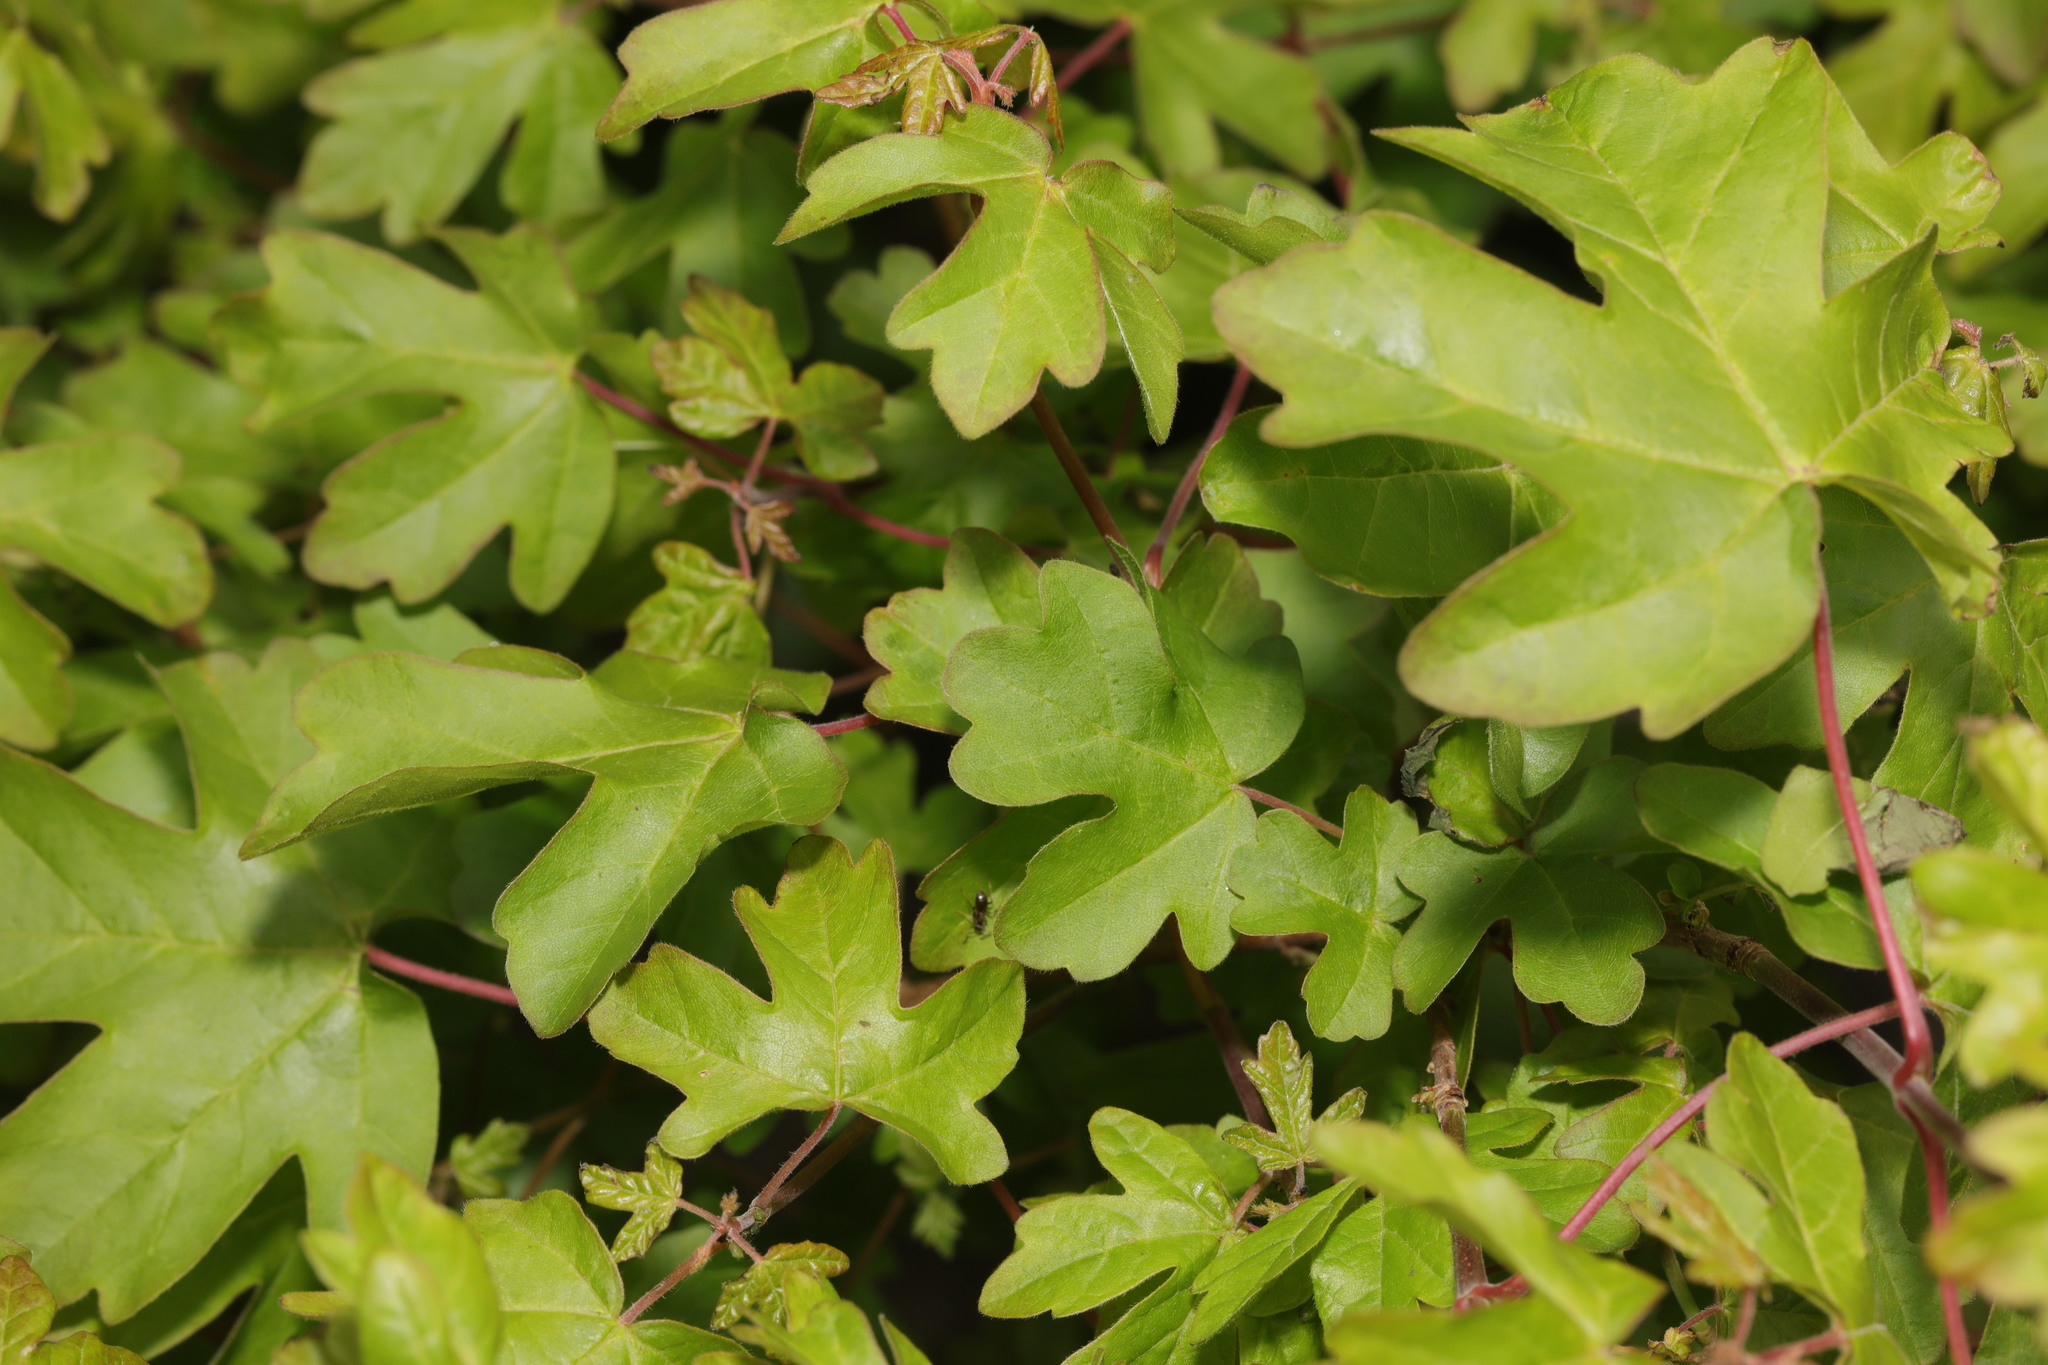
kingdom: Plantae
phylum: Tracheophyta
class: Magnoliopsida
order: Sapindales
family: Sapindaceae
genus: Acer
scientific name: Acer campestre
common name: Field maple
